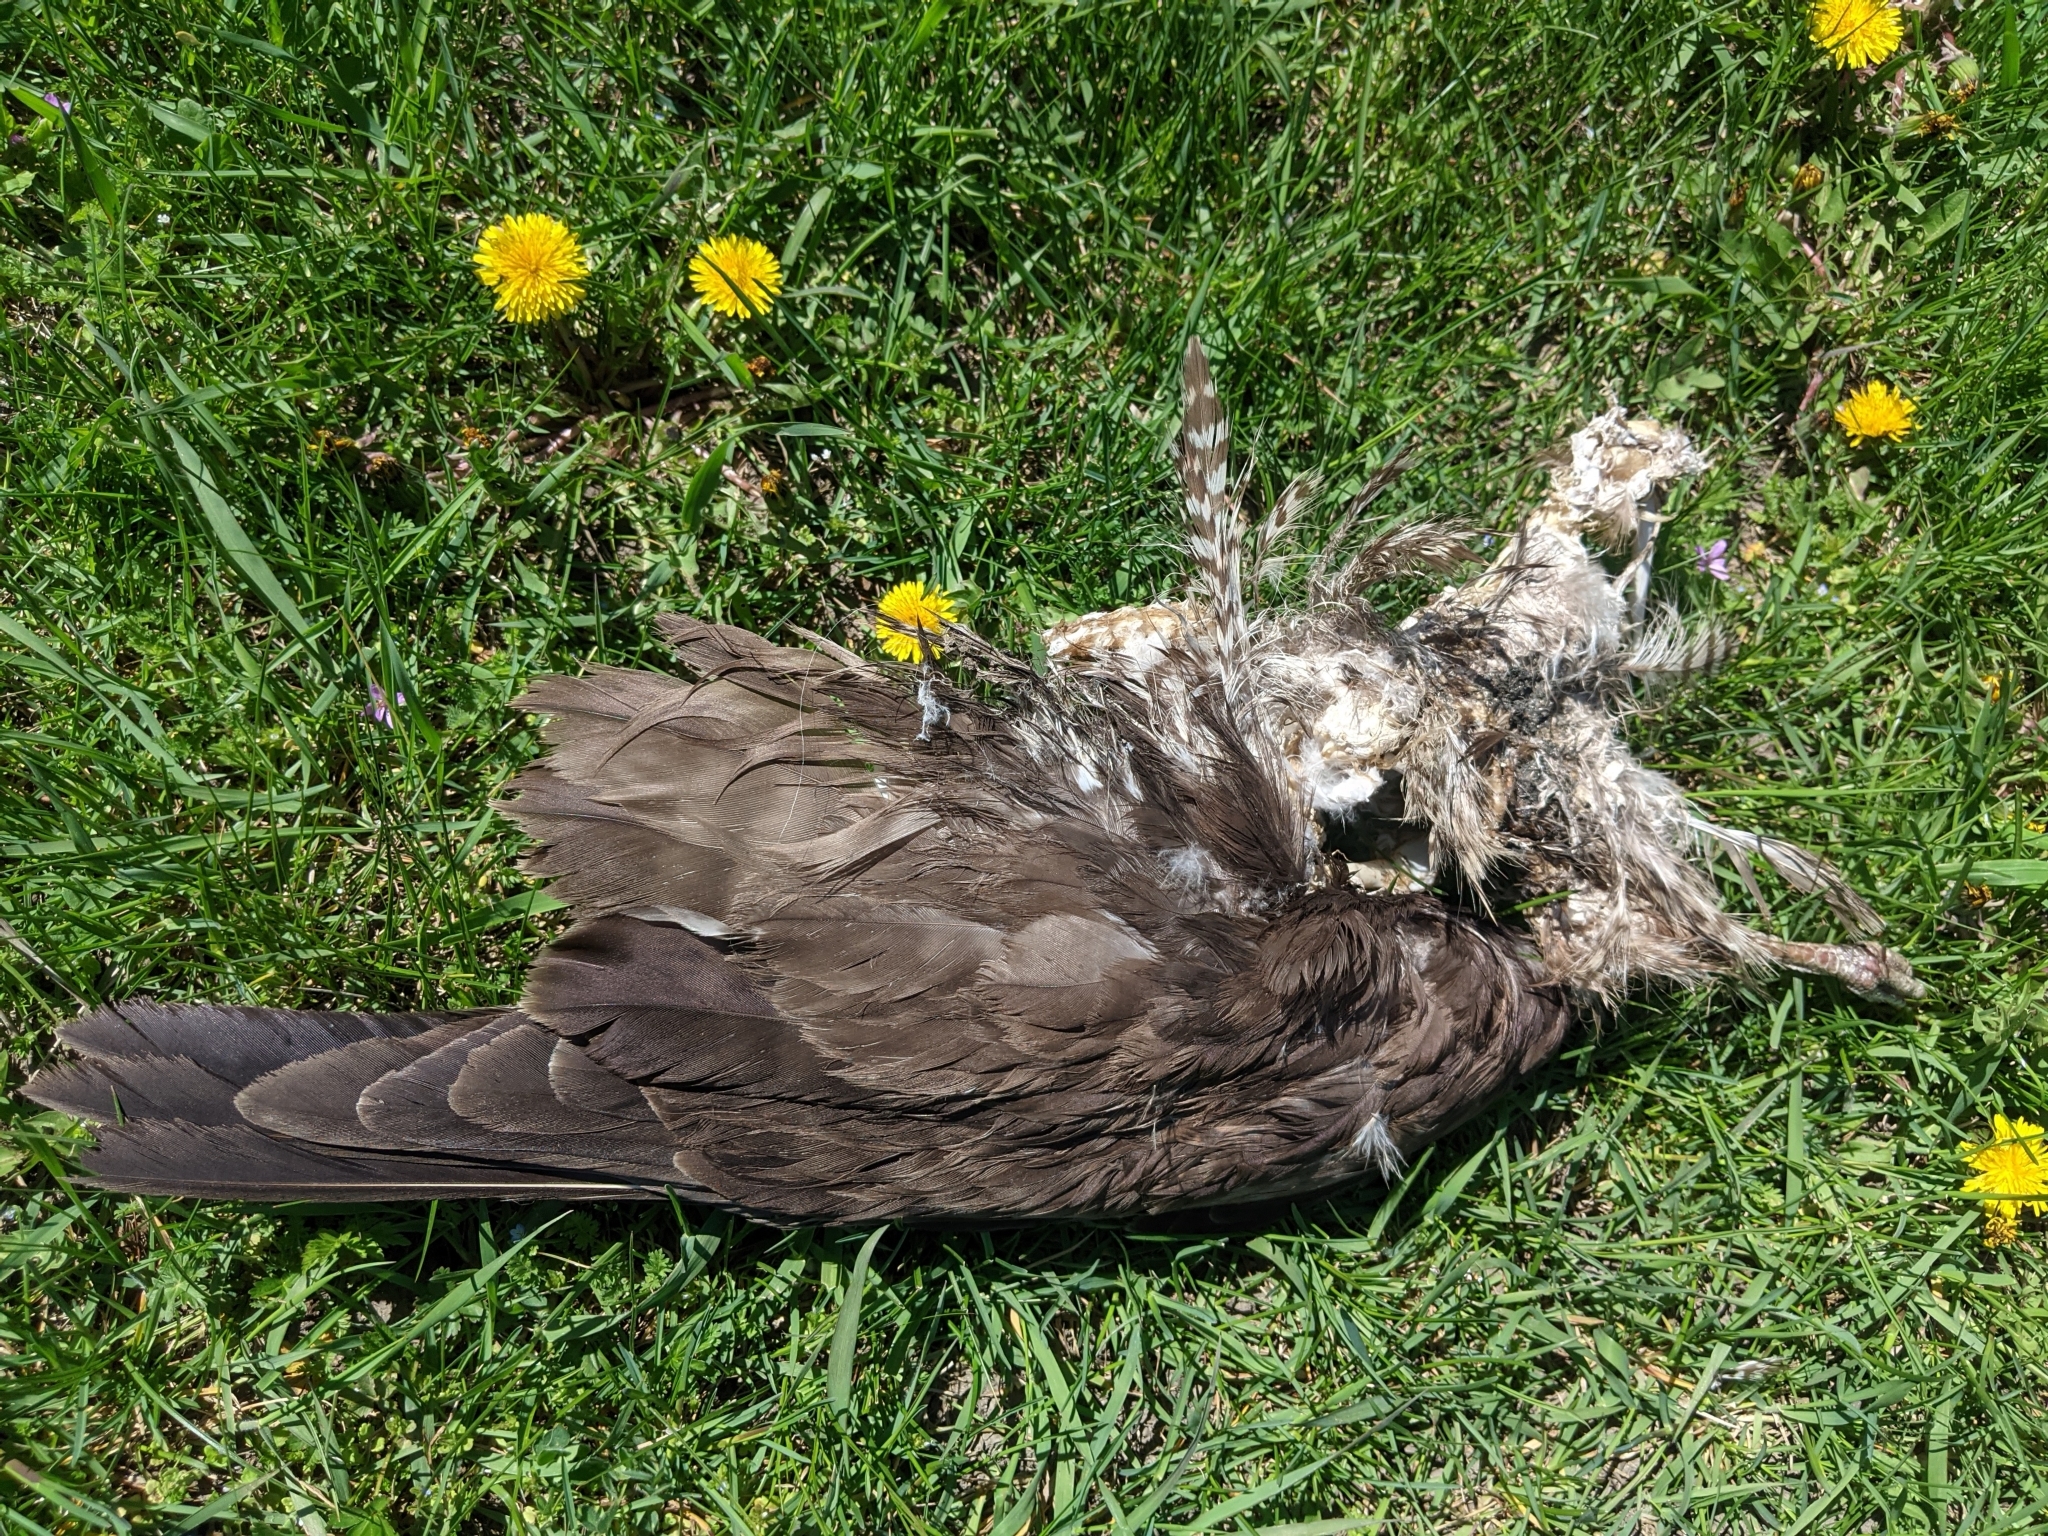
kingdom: Animalia
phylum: Chordata
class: Aves
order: Accipitriformes
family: Accipitridae
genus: Buteo
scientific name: Buteo buteo
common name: Common buzzard
